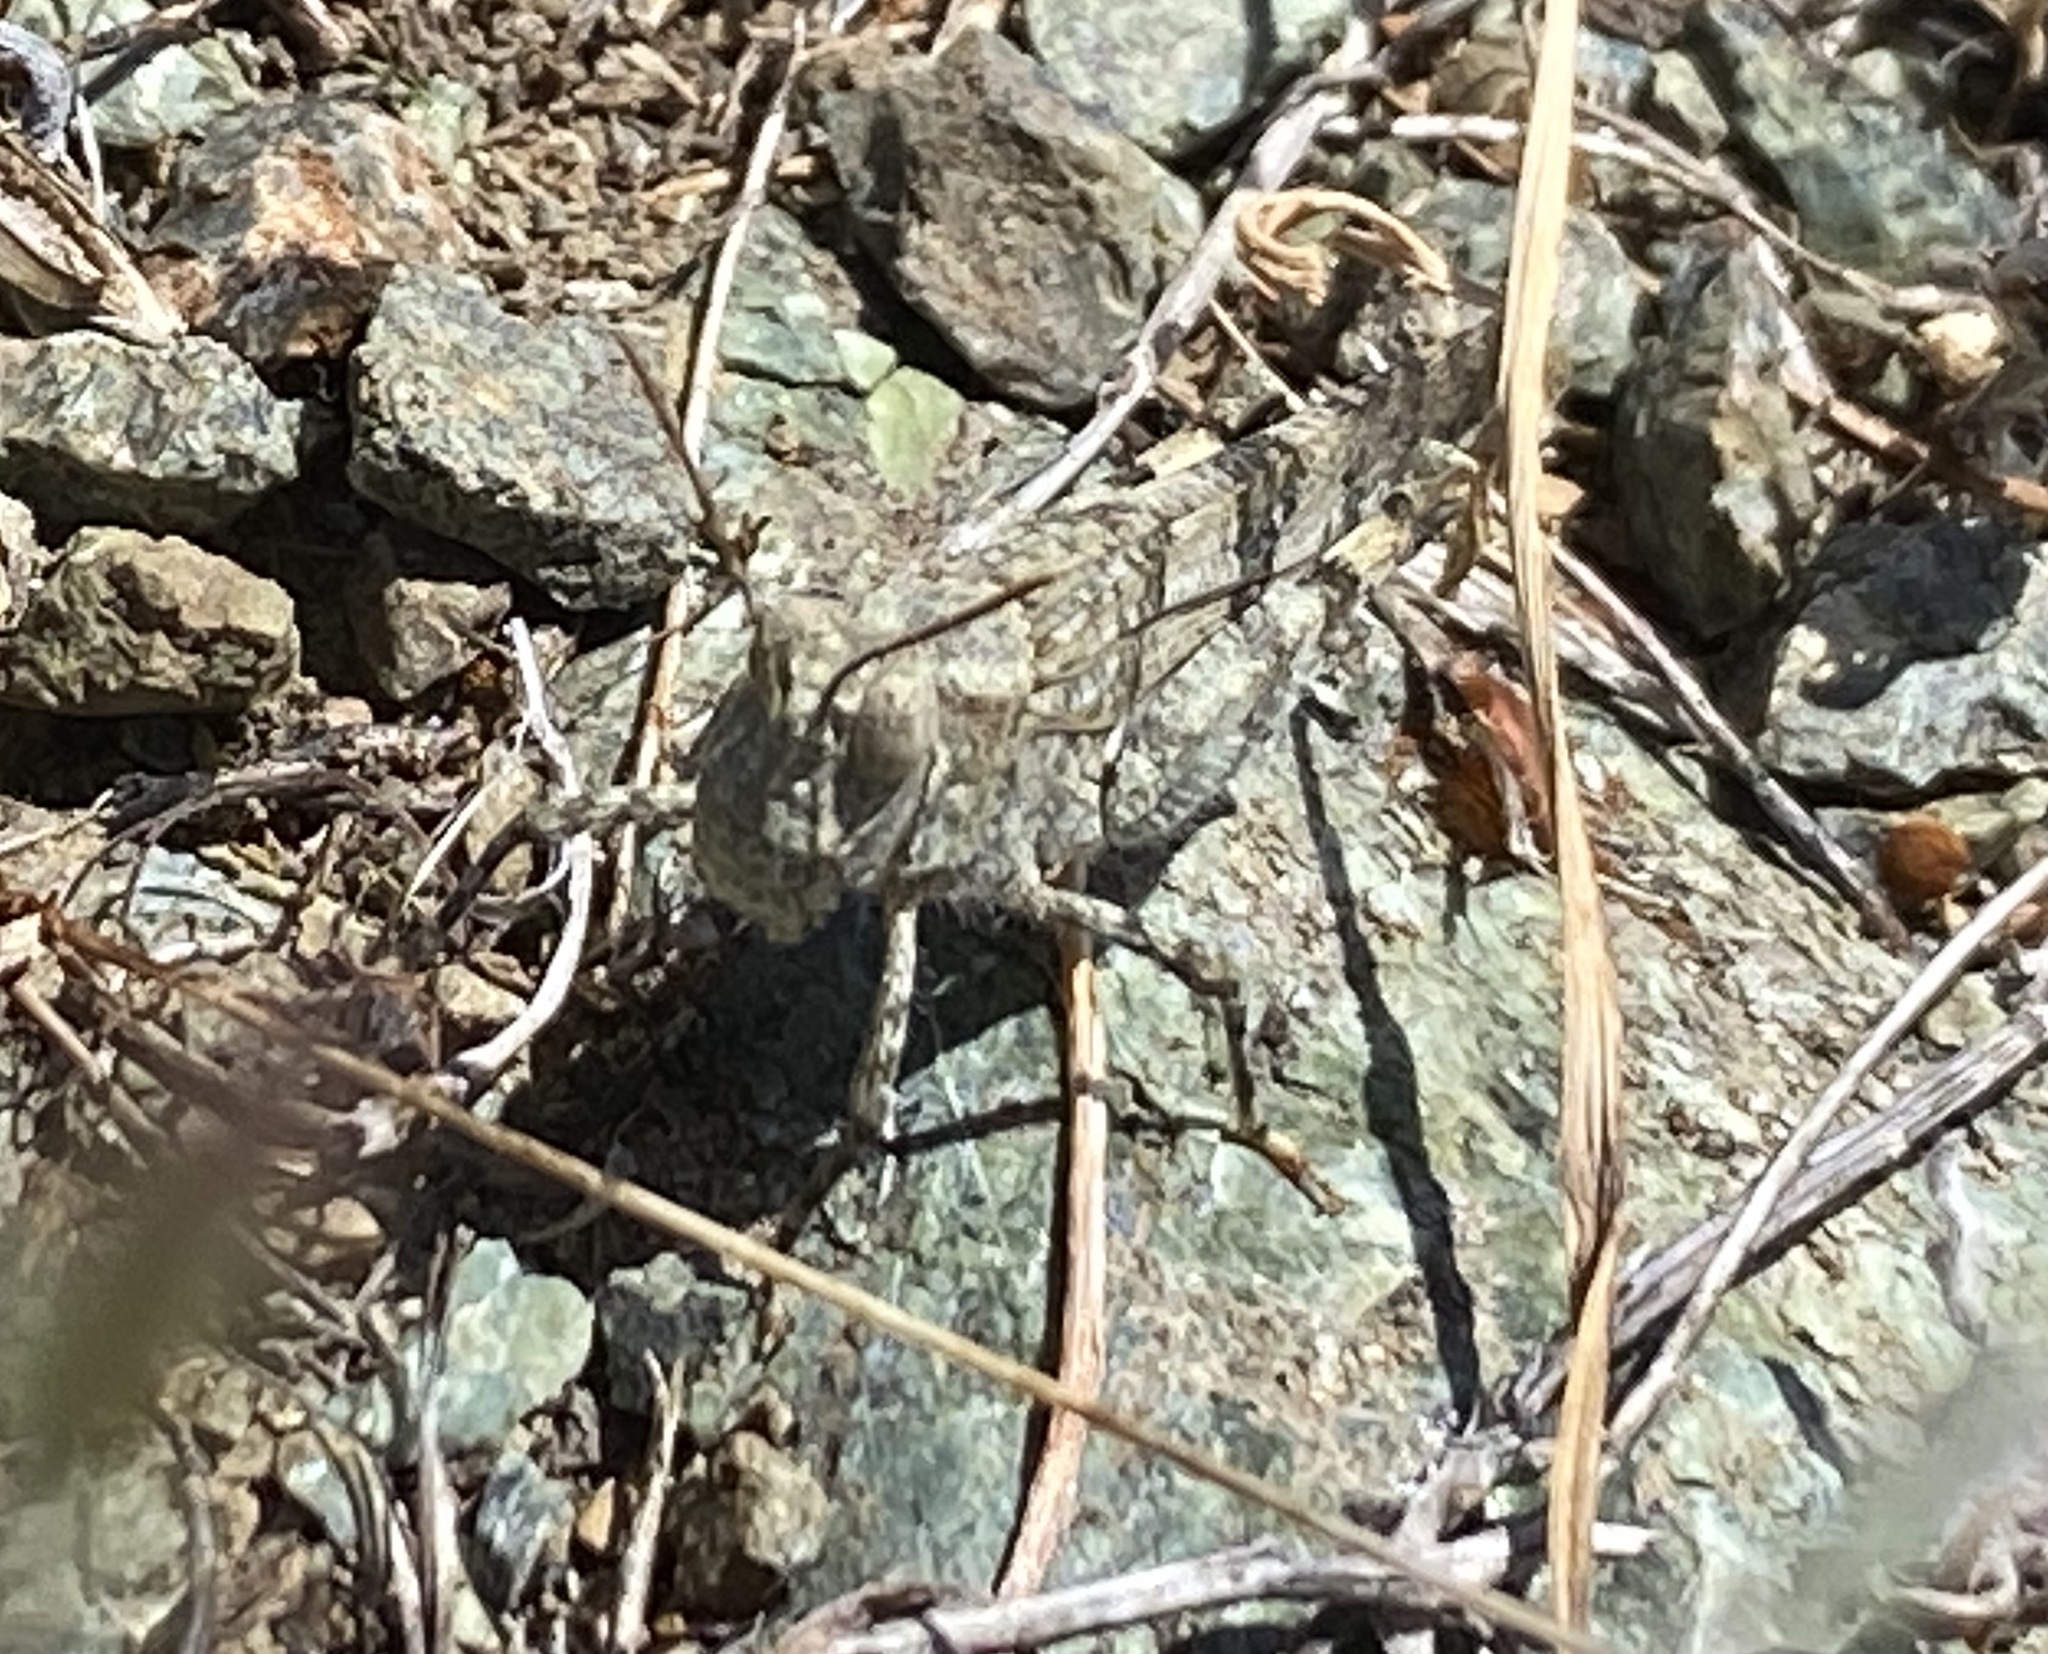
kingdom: Animalia
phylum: Arthropoda
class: Insecta
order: Orthoptera
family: Acrididae
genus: Trimerotropis
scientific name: Trimerotropis occidentalis
